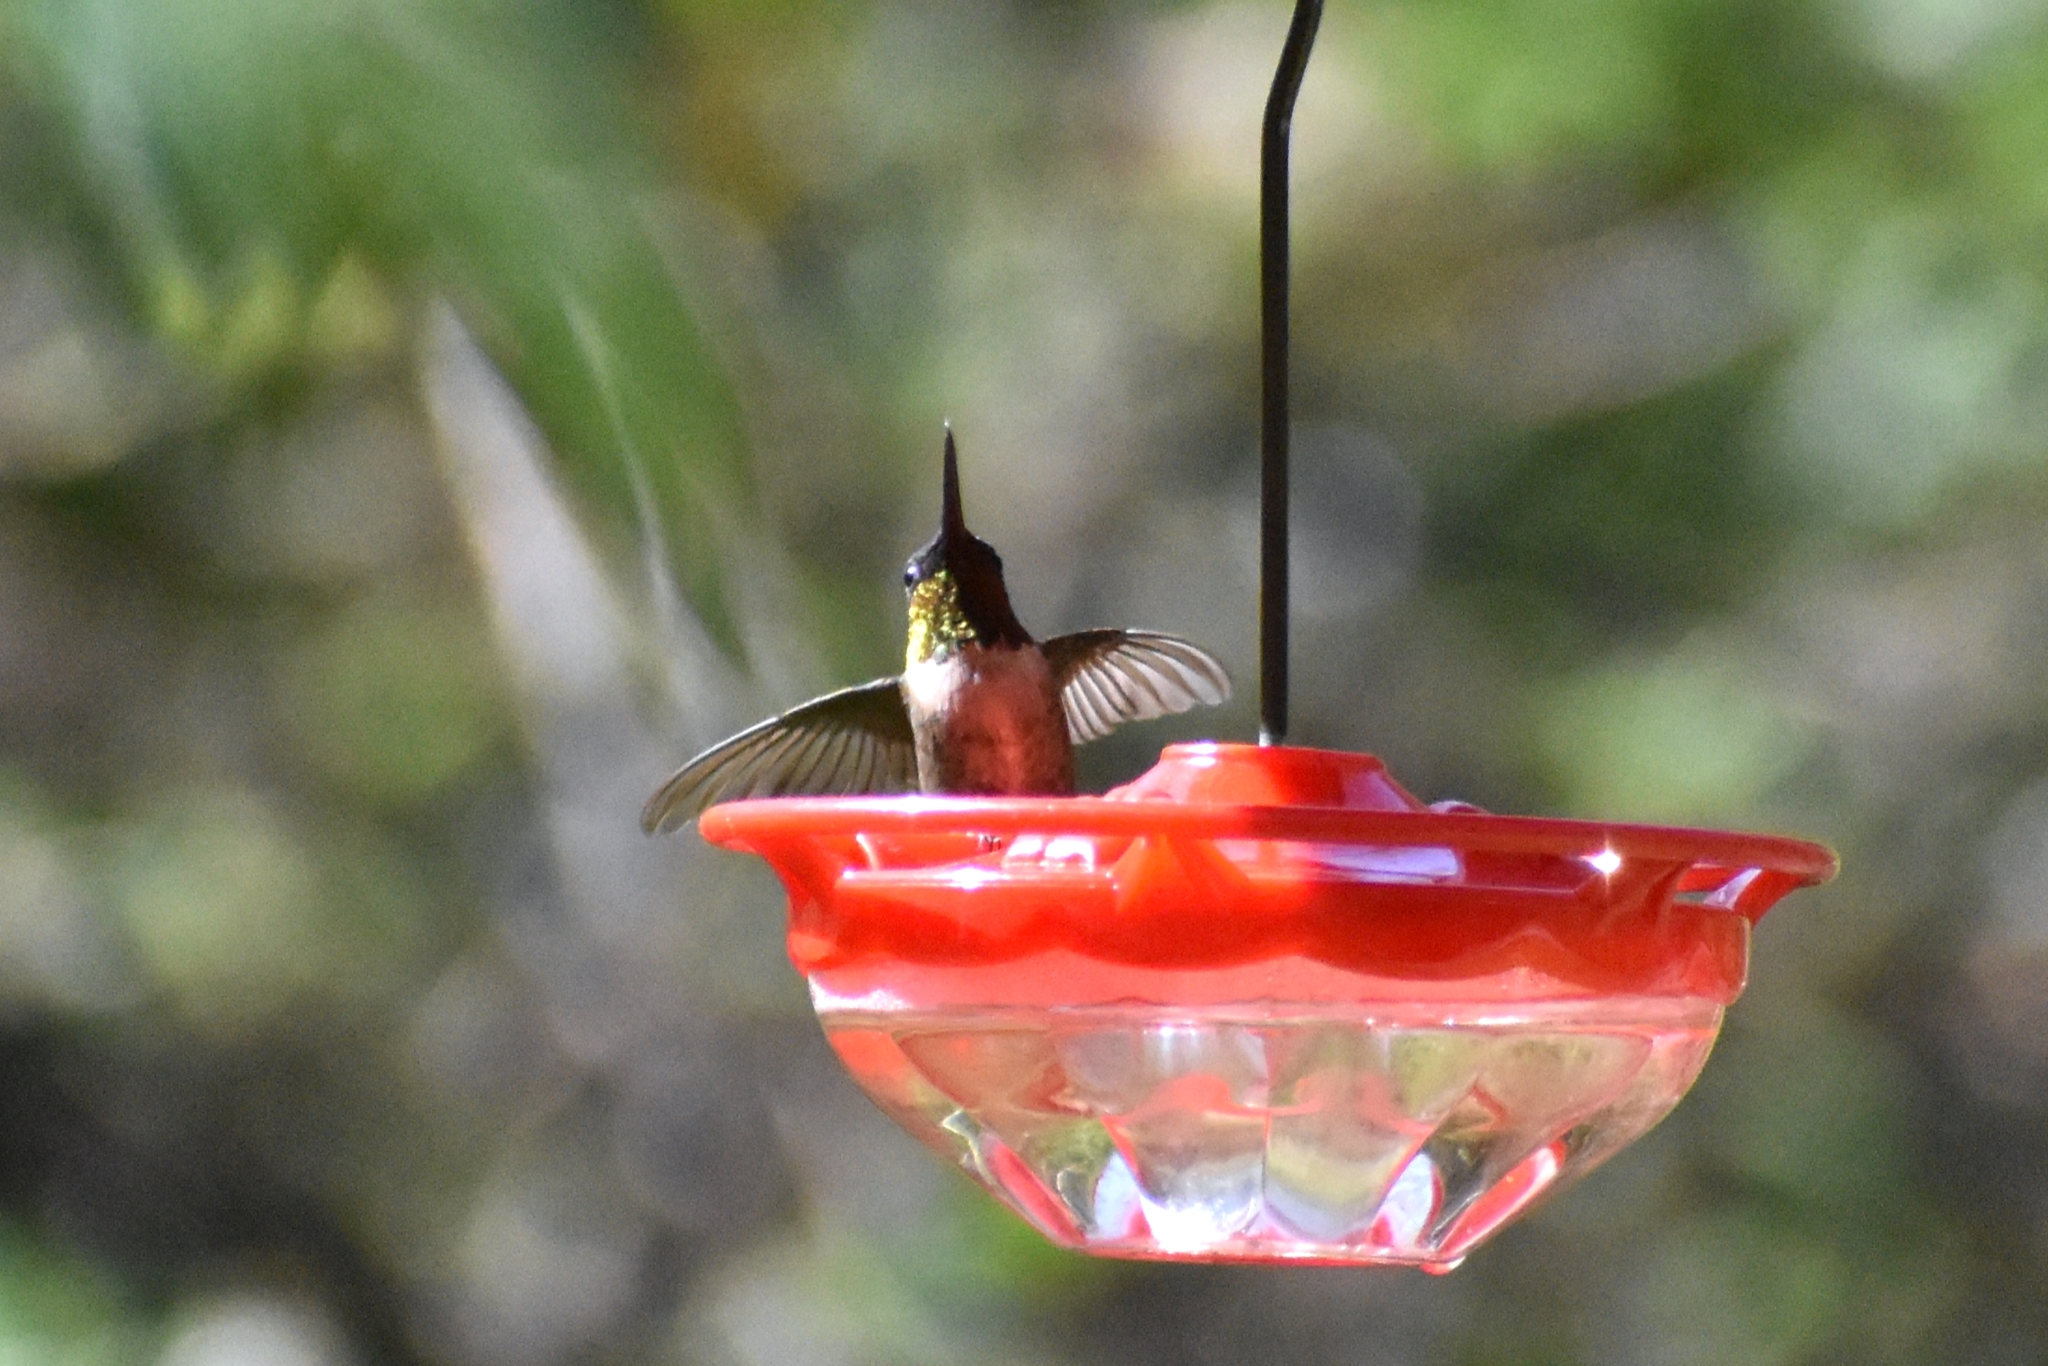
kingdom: Animalia
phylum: Chordata
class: Aves
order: Apodiformes
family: Trochilidae
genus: Archilochus
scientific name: Archilochus colubris
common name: Ruby-throated hummingbird
